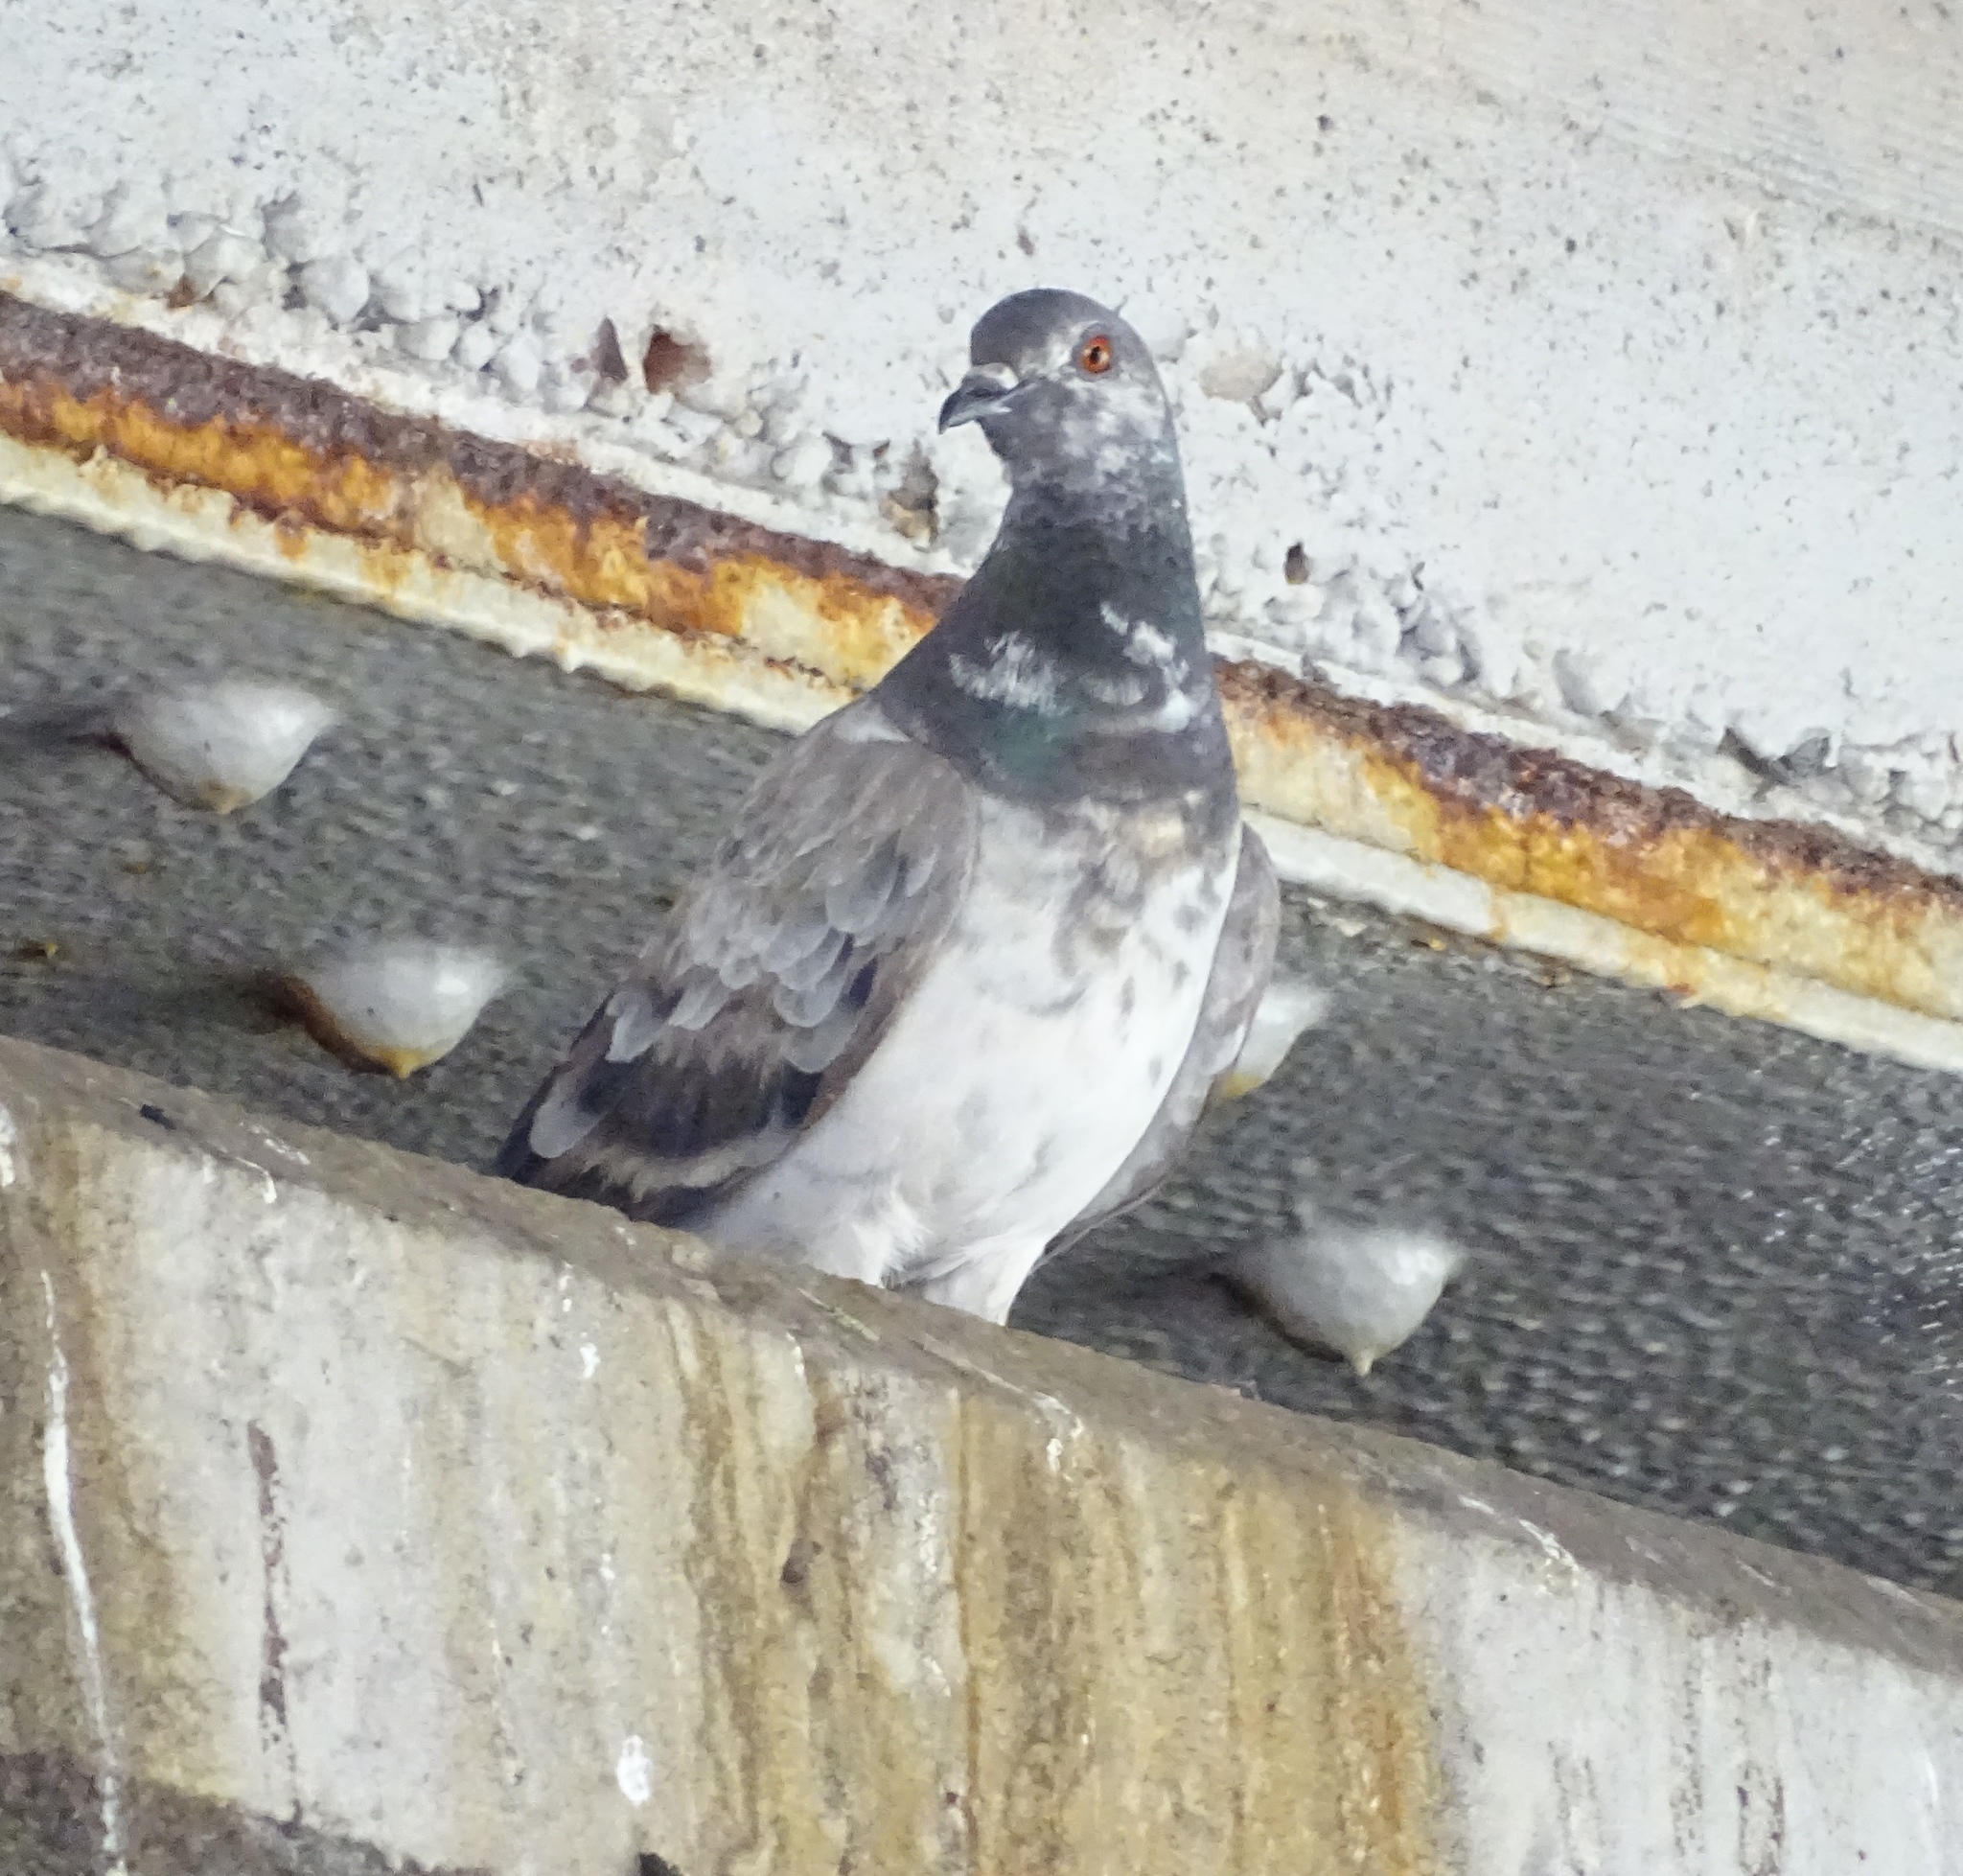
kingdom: Animalia
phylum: Chordata
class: Aves
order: Columbiformes
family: Columbidae
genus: Columba
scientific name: Columba livia
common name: Rock pigeon
